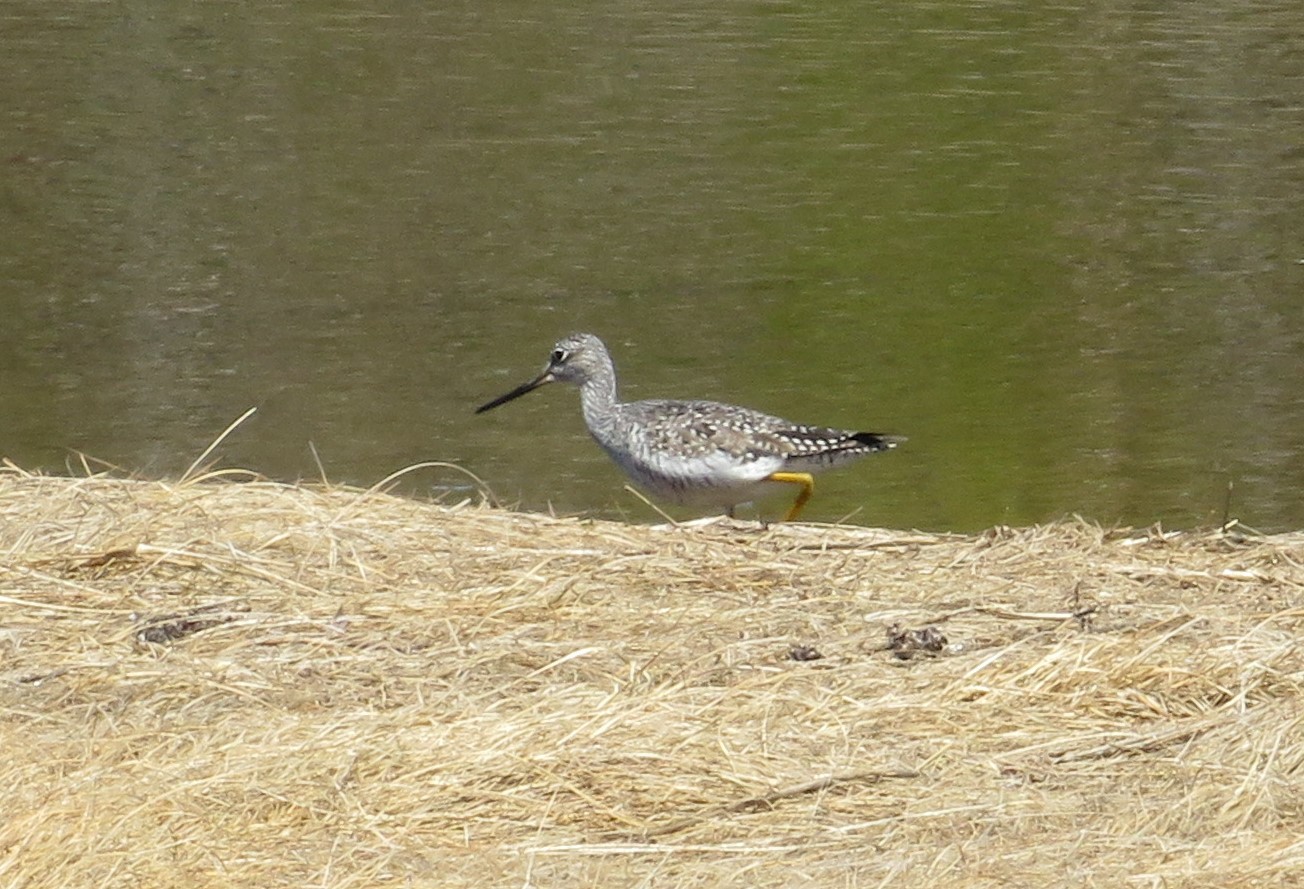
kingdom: Animalia
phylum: Chordata
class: Aves
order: Charadriiformes
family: Scolopacidae
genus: Tringa
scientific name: Tringa melanoleuca
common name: Greater yellowlegs
